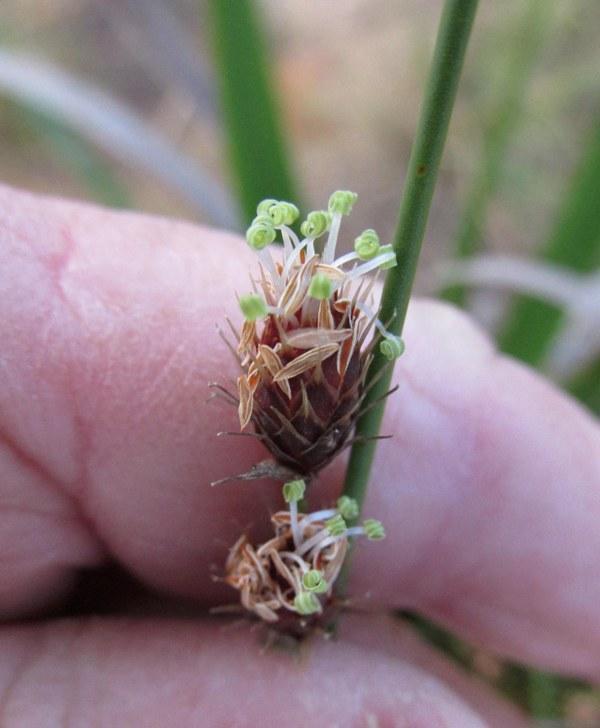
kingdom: Plantae
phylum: Tracheophyta
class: Liliopsida
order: Poales
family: Restionaceae
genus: Hypodiscus
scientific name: Hypodiscus aristatus
